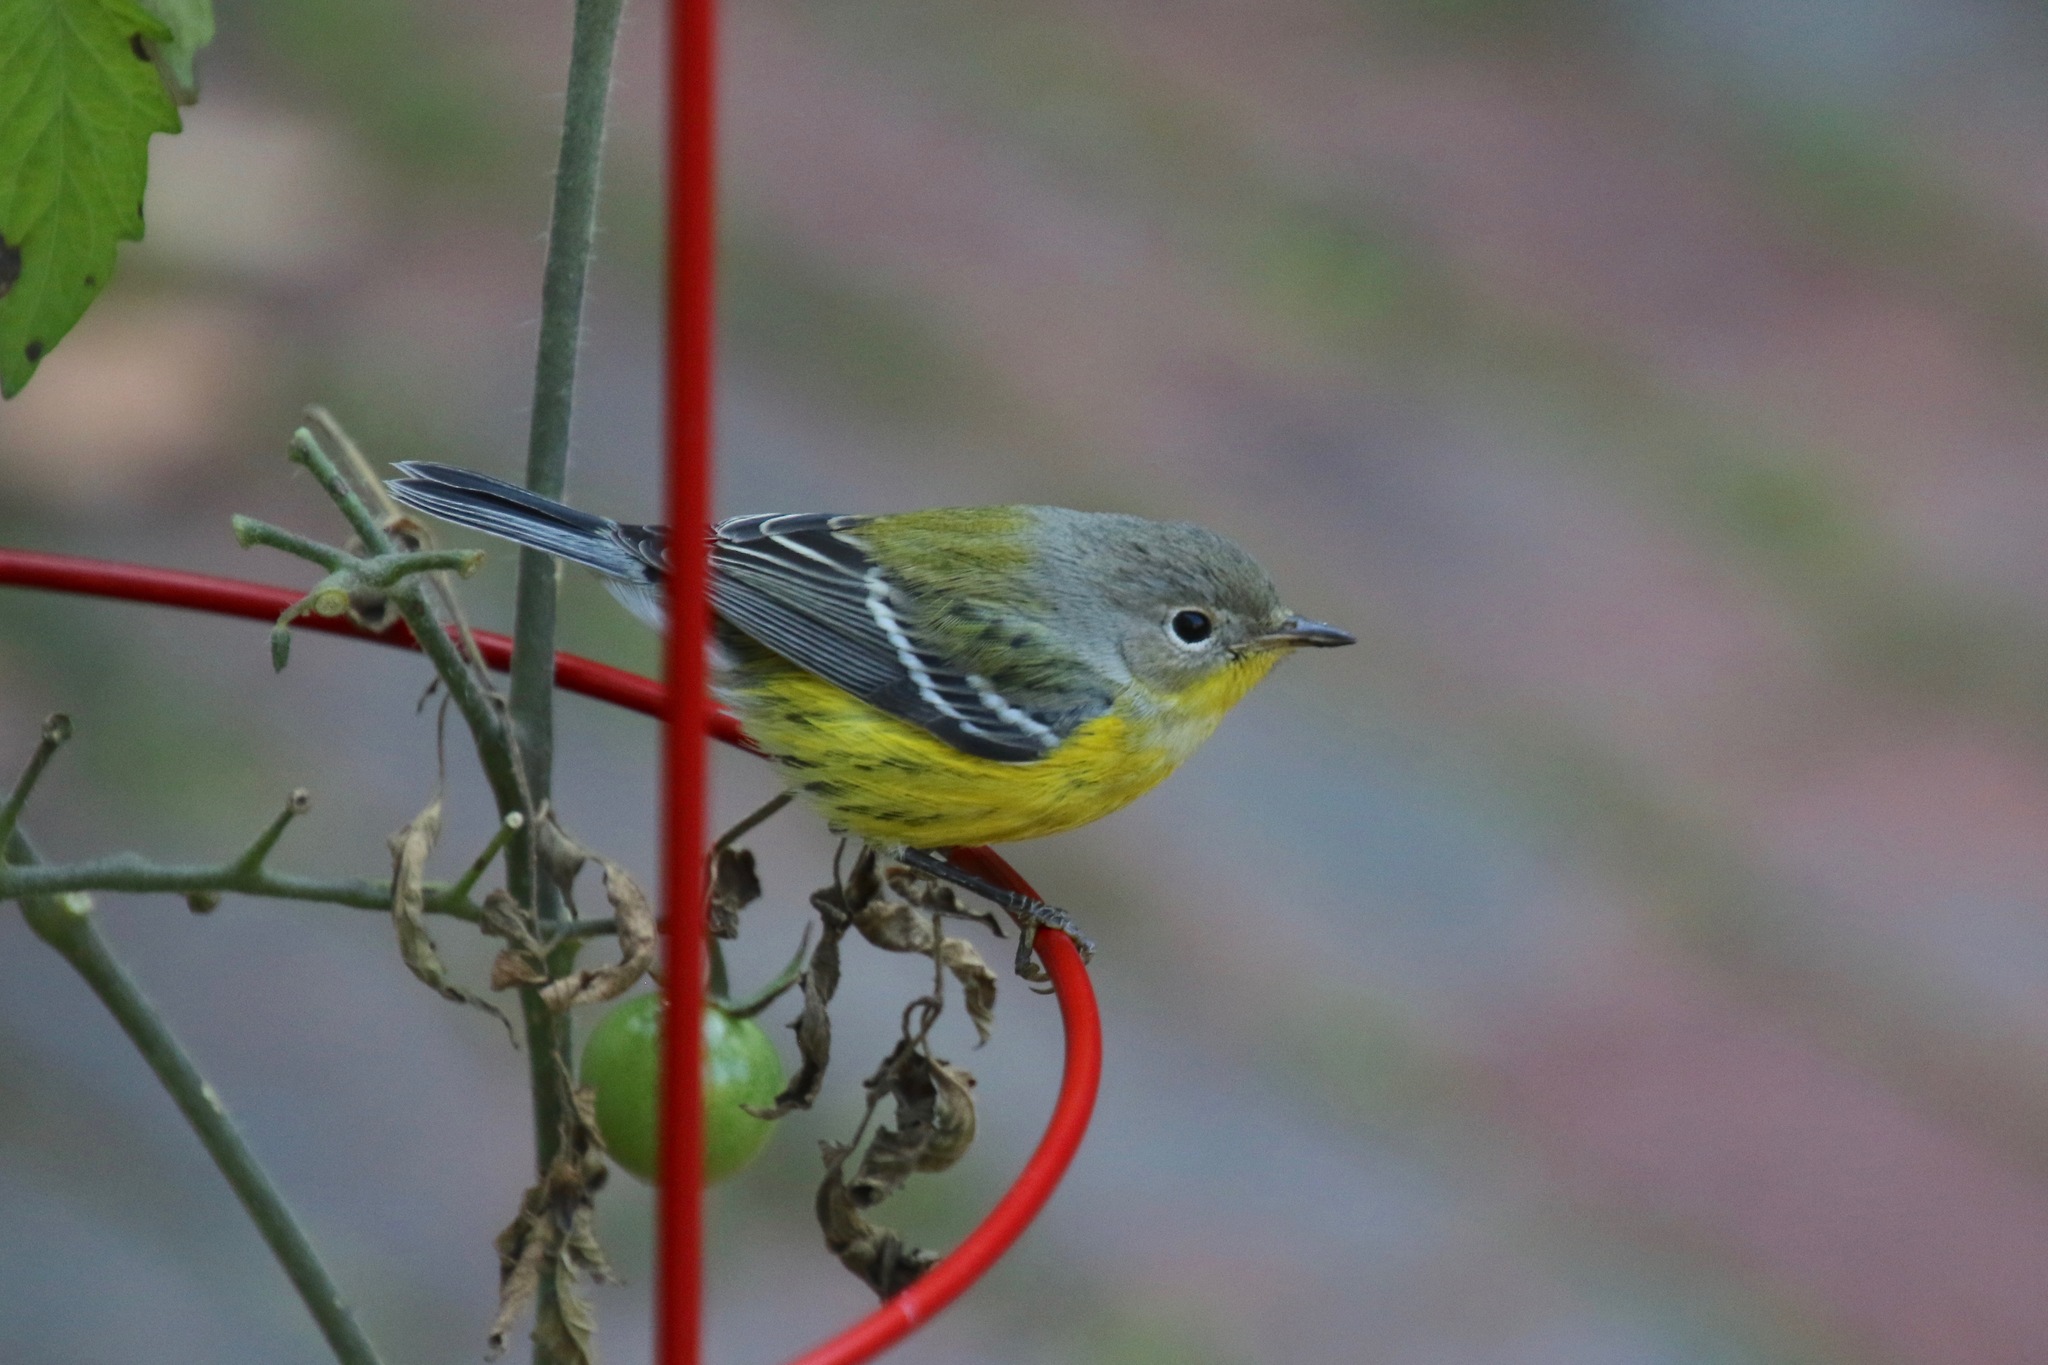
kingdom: Animalia
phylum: Chordata
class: Aves
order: Passeriformes
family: Parulidae
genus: Setophaga
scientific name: Setophaga magnolia
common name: Magnolia warbler
